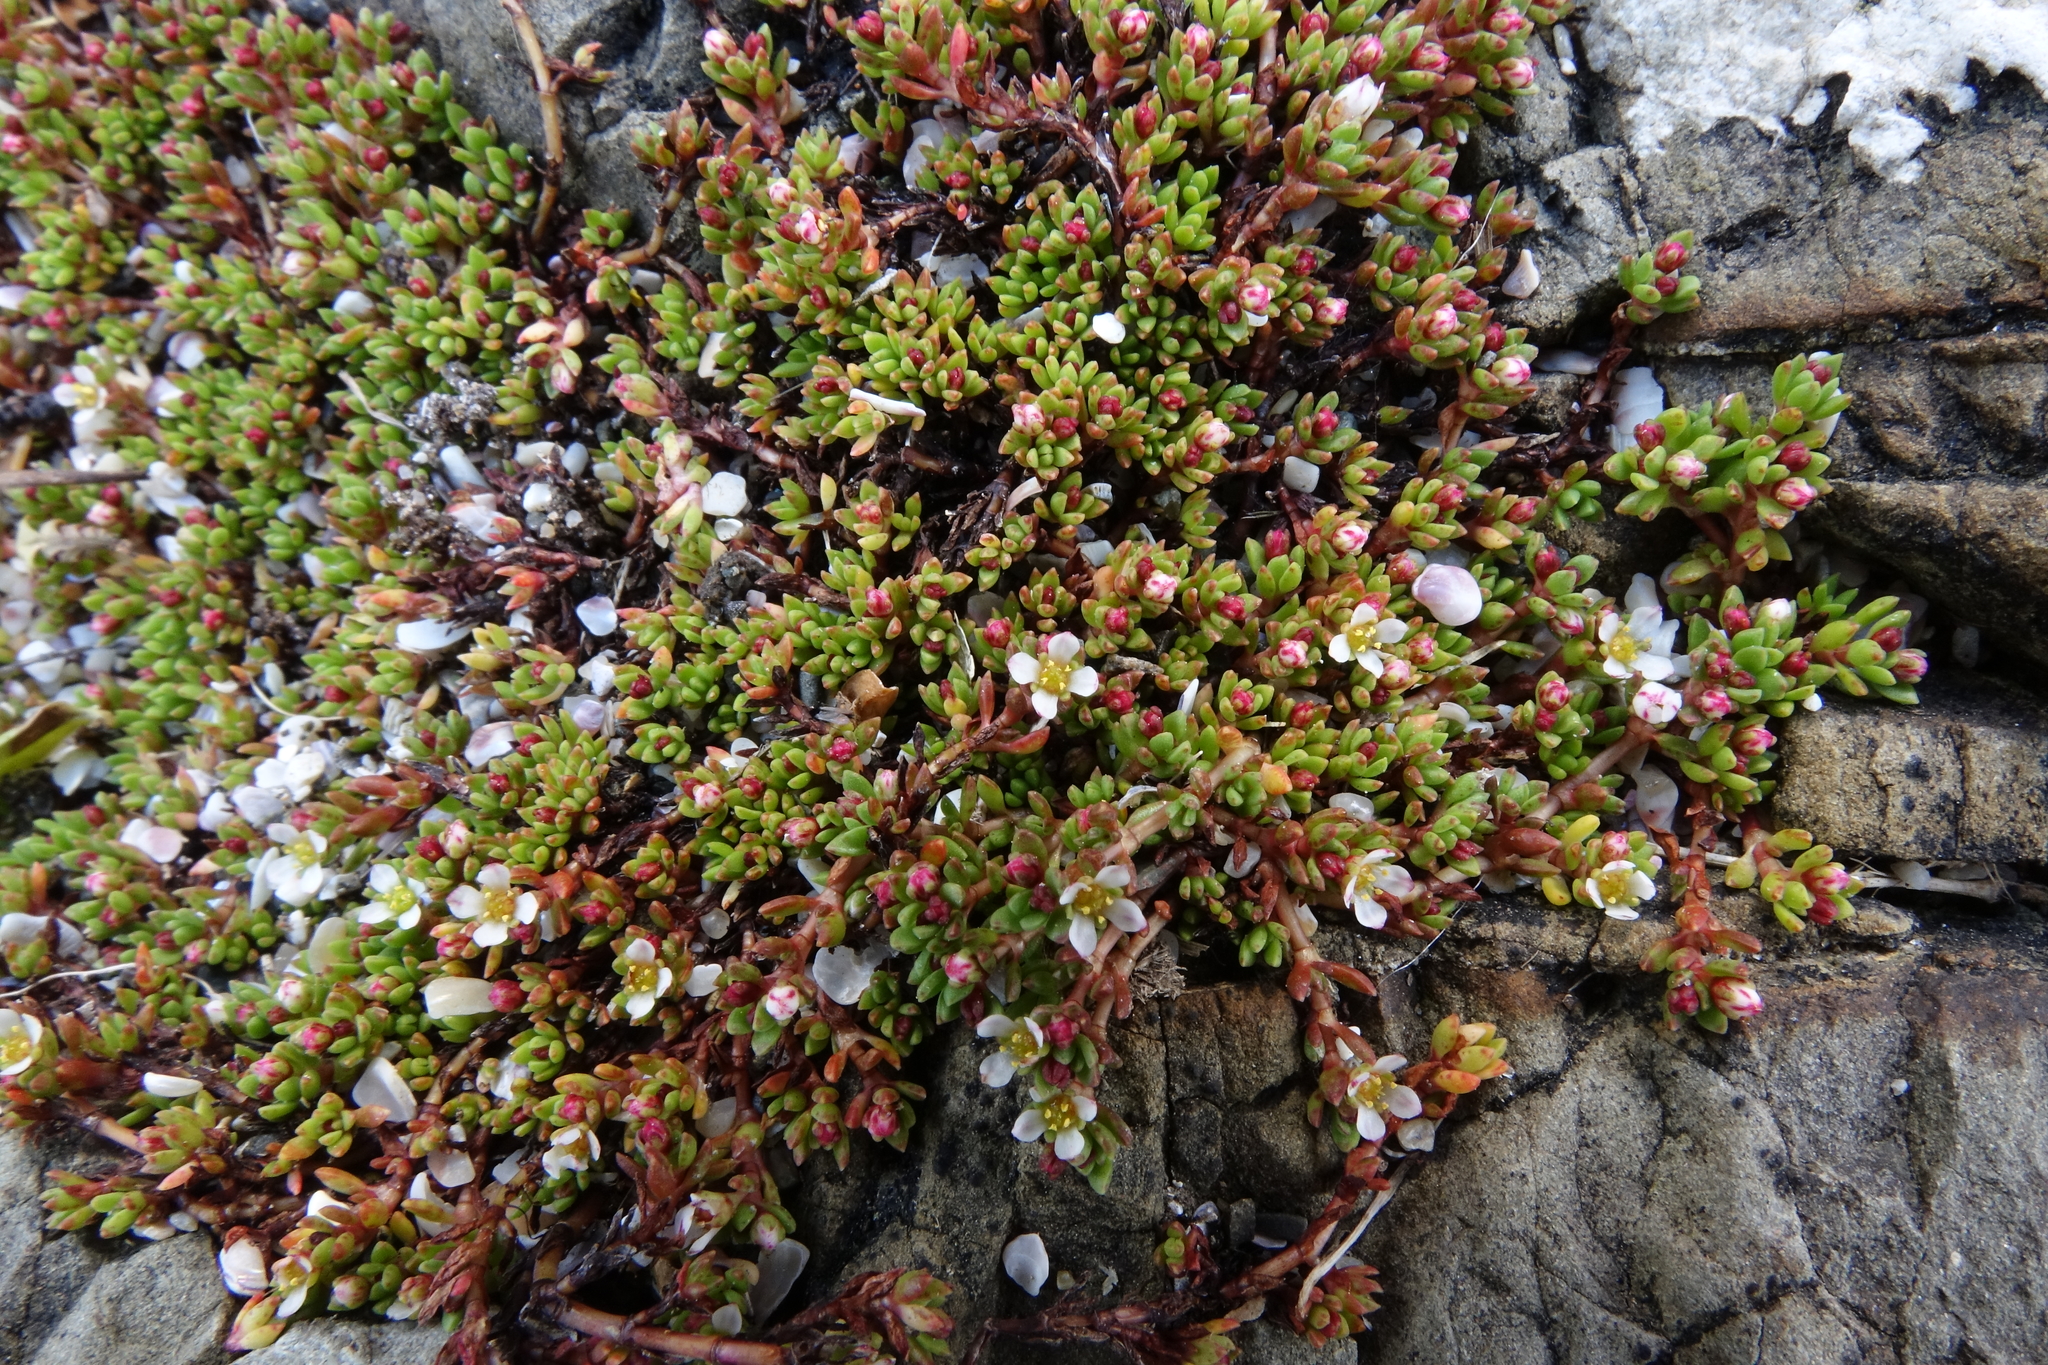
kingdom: Plantae
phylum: Tracheophyta
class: Magnoliopsida
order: Saxifragales
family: Crassulaceae
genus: Crassula
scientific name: Crassula moschata
